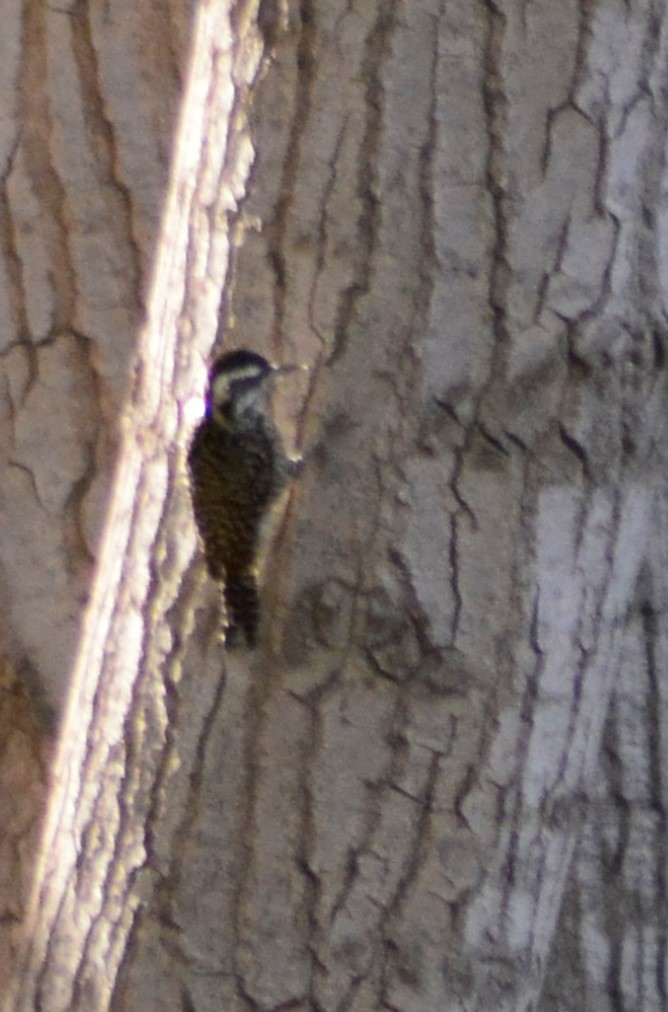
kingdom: Animalia
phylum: Chordata
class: Aves
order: Piciformes
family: Picidae
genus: Veniliornis
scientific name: Veniliornis mixtus
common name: Checkered woodpecker
